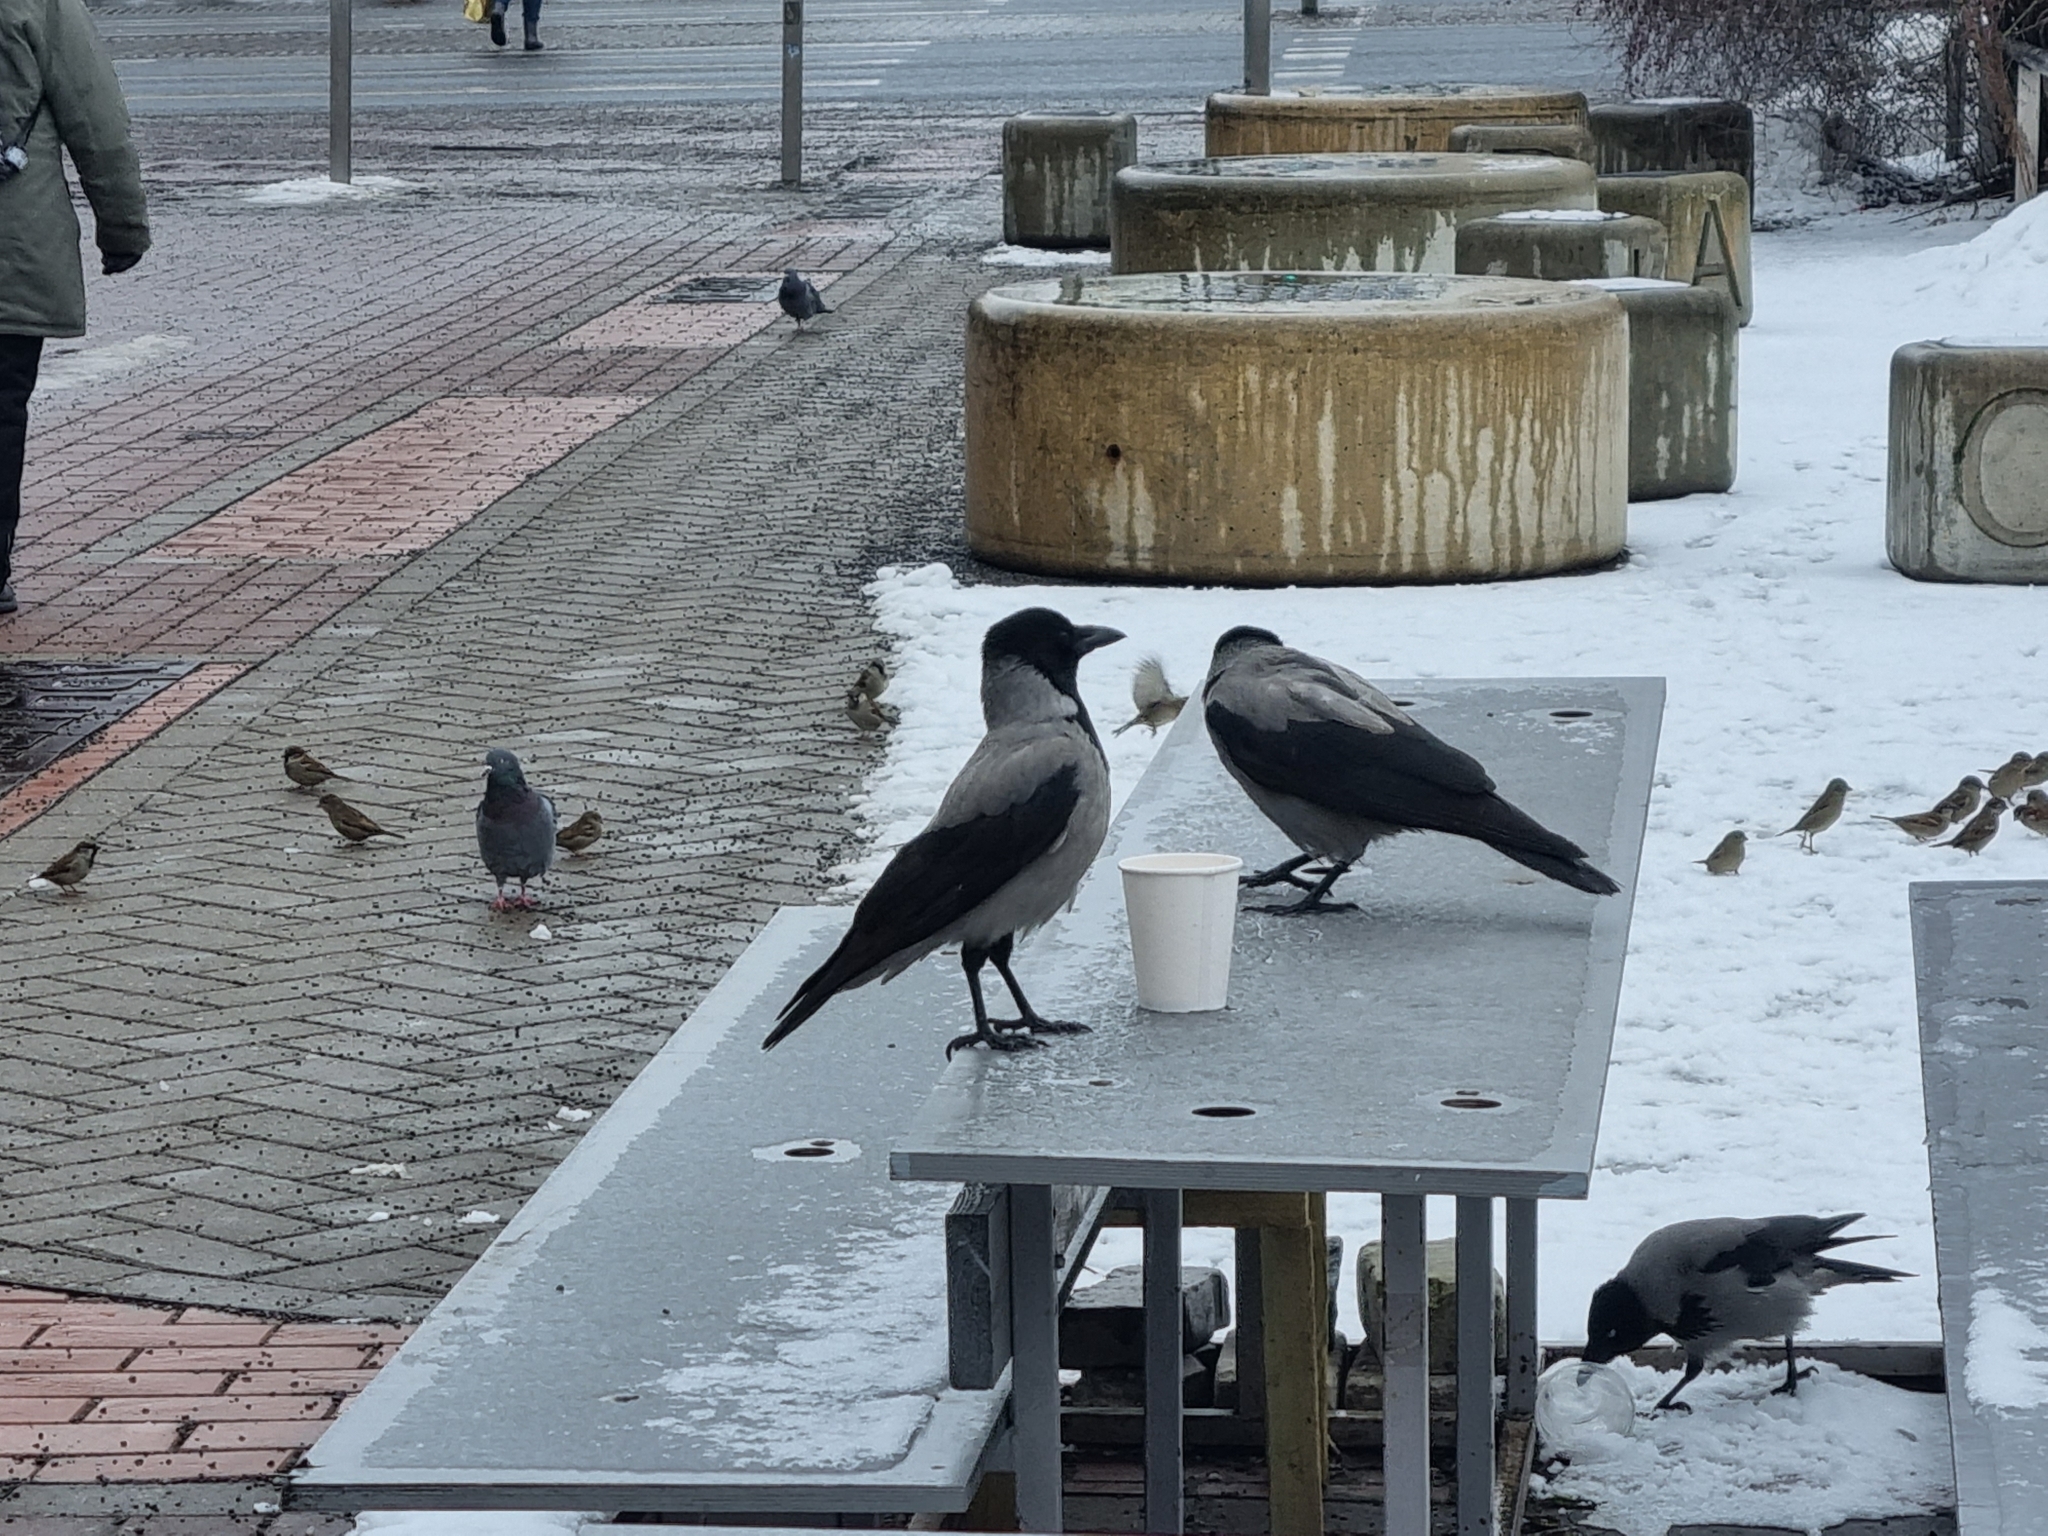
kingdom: Animalia
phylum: Chordata
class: Aves
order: Passeriformes
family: Corvidae
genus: Corvus
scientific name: Corvus cornix
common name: Hooded crow
